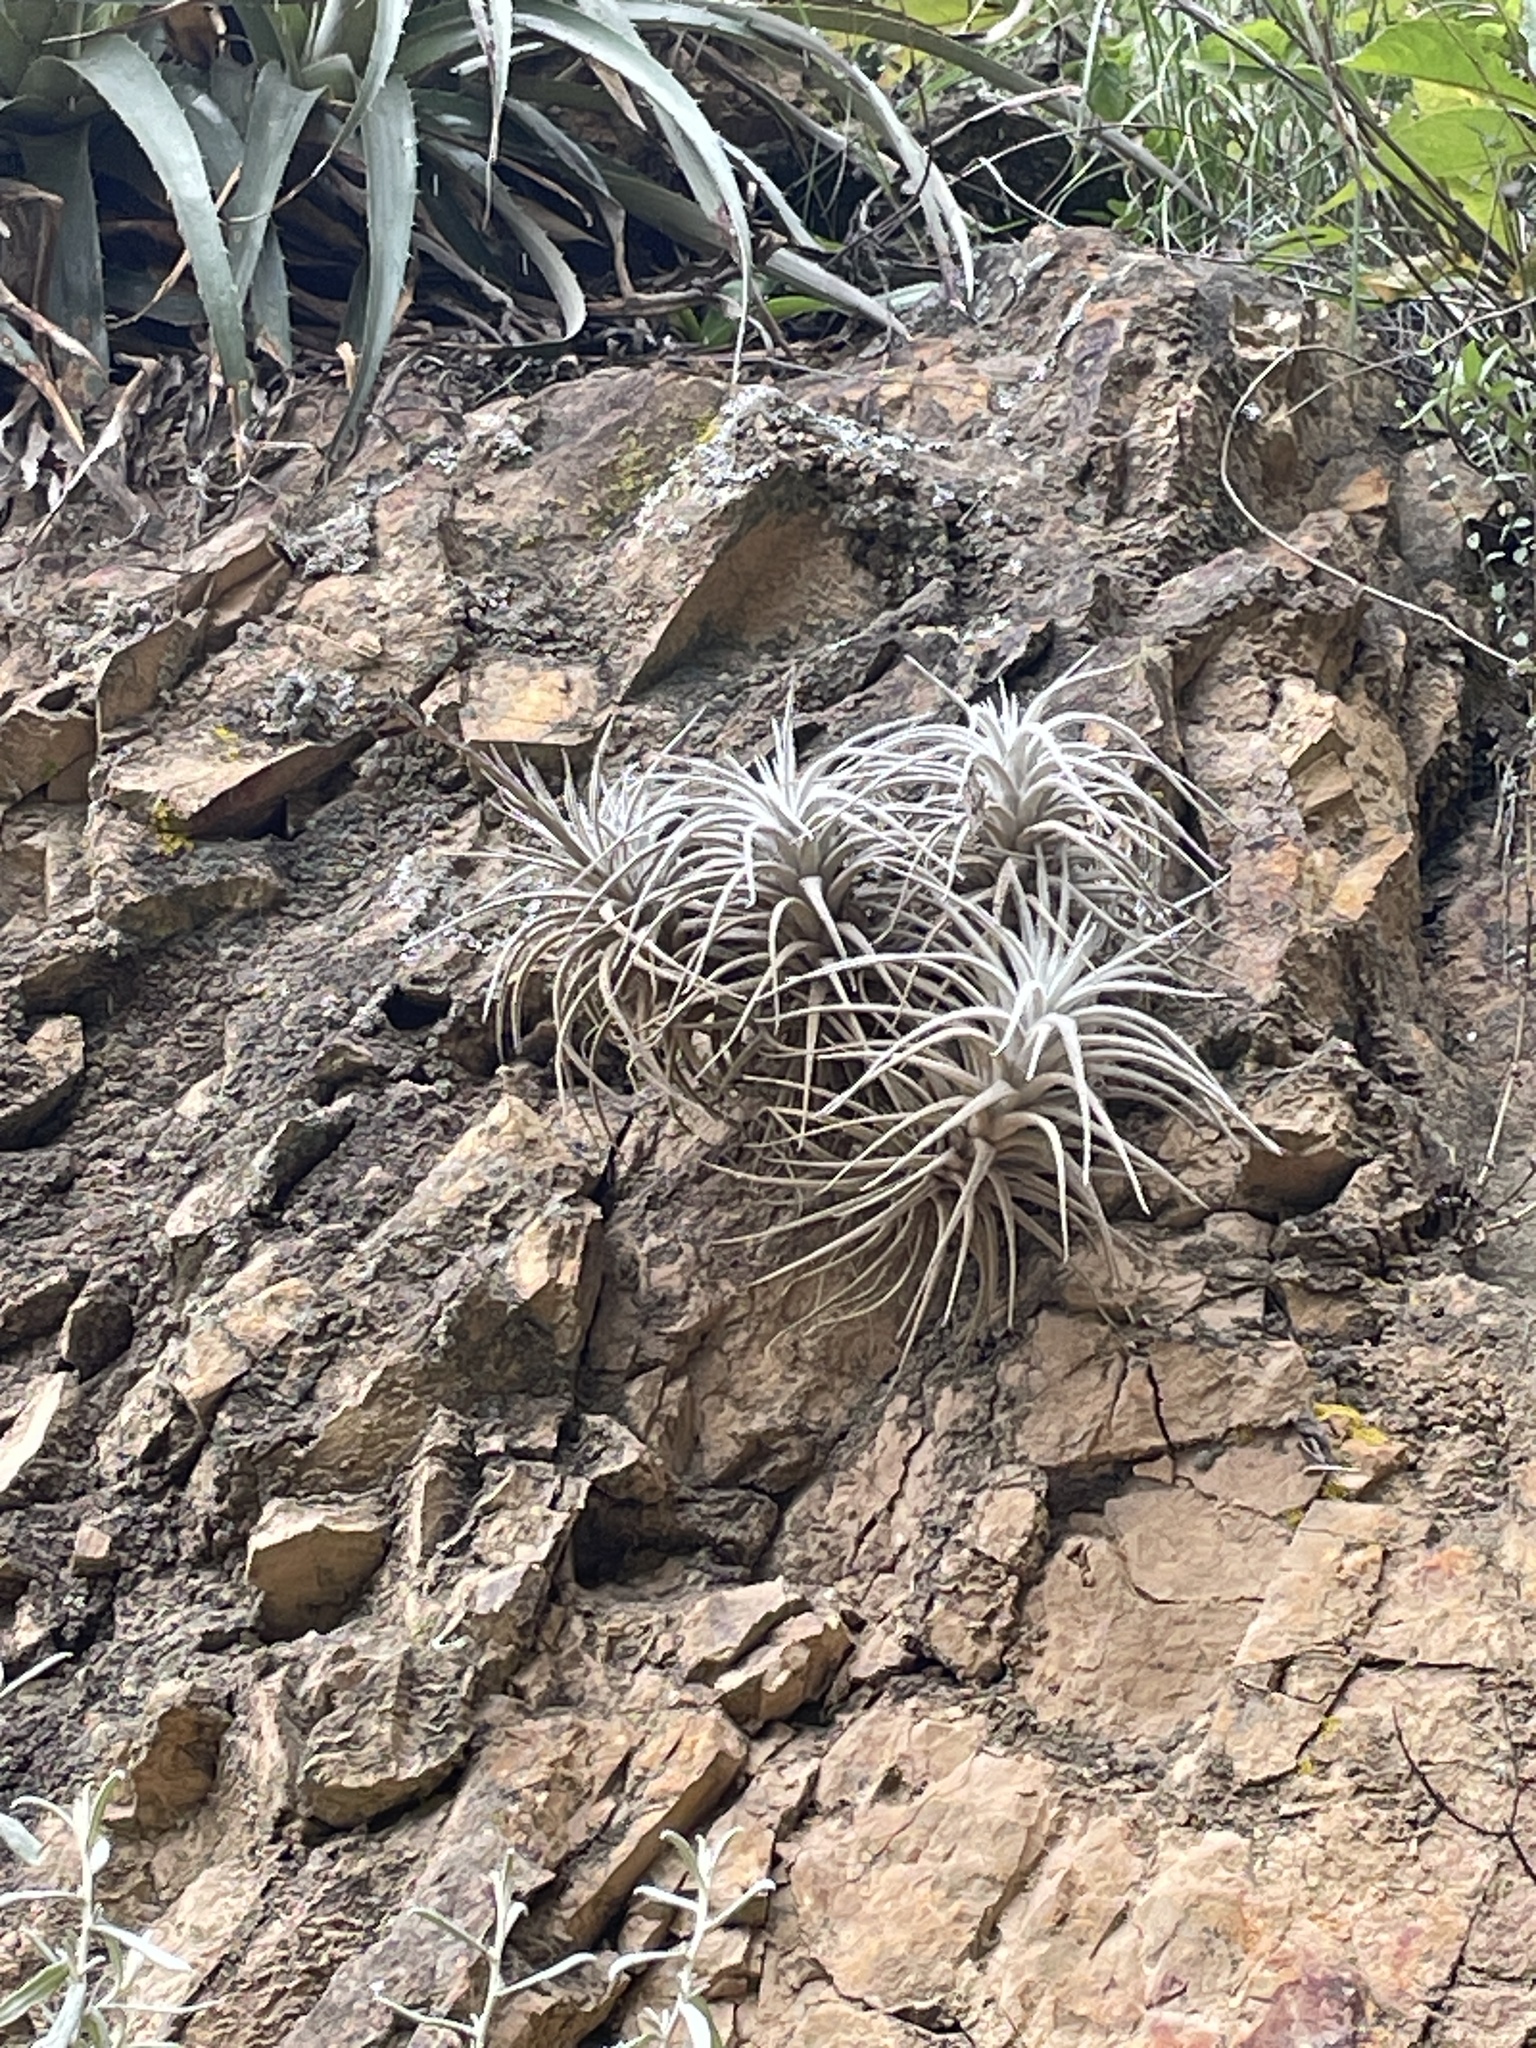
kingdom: Plantae
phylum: Tracheophyta
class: Liliopsida
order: Poales
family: Bromeliaceae
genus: Tillandsia
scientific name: Tillandsia tectorum
